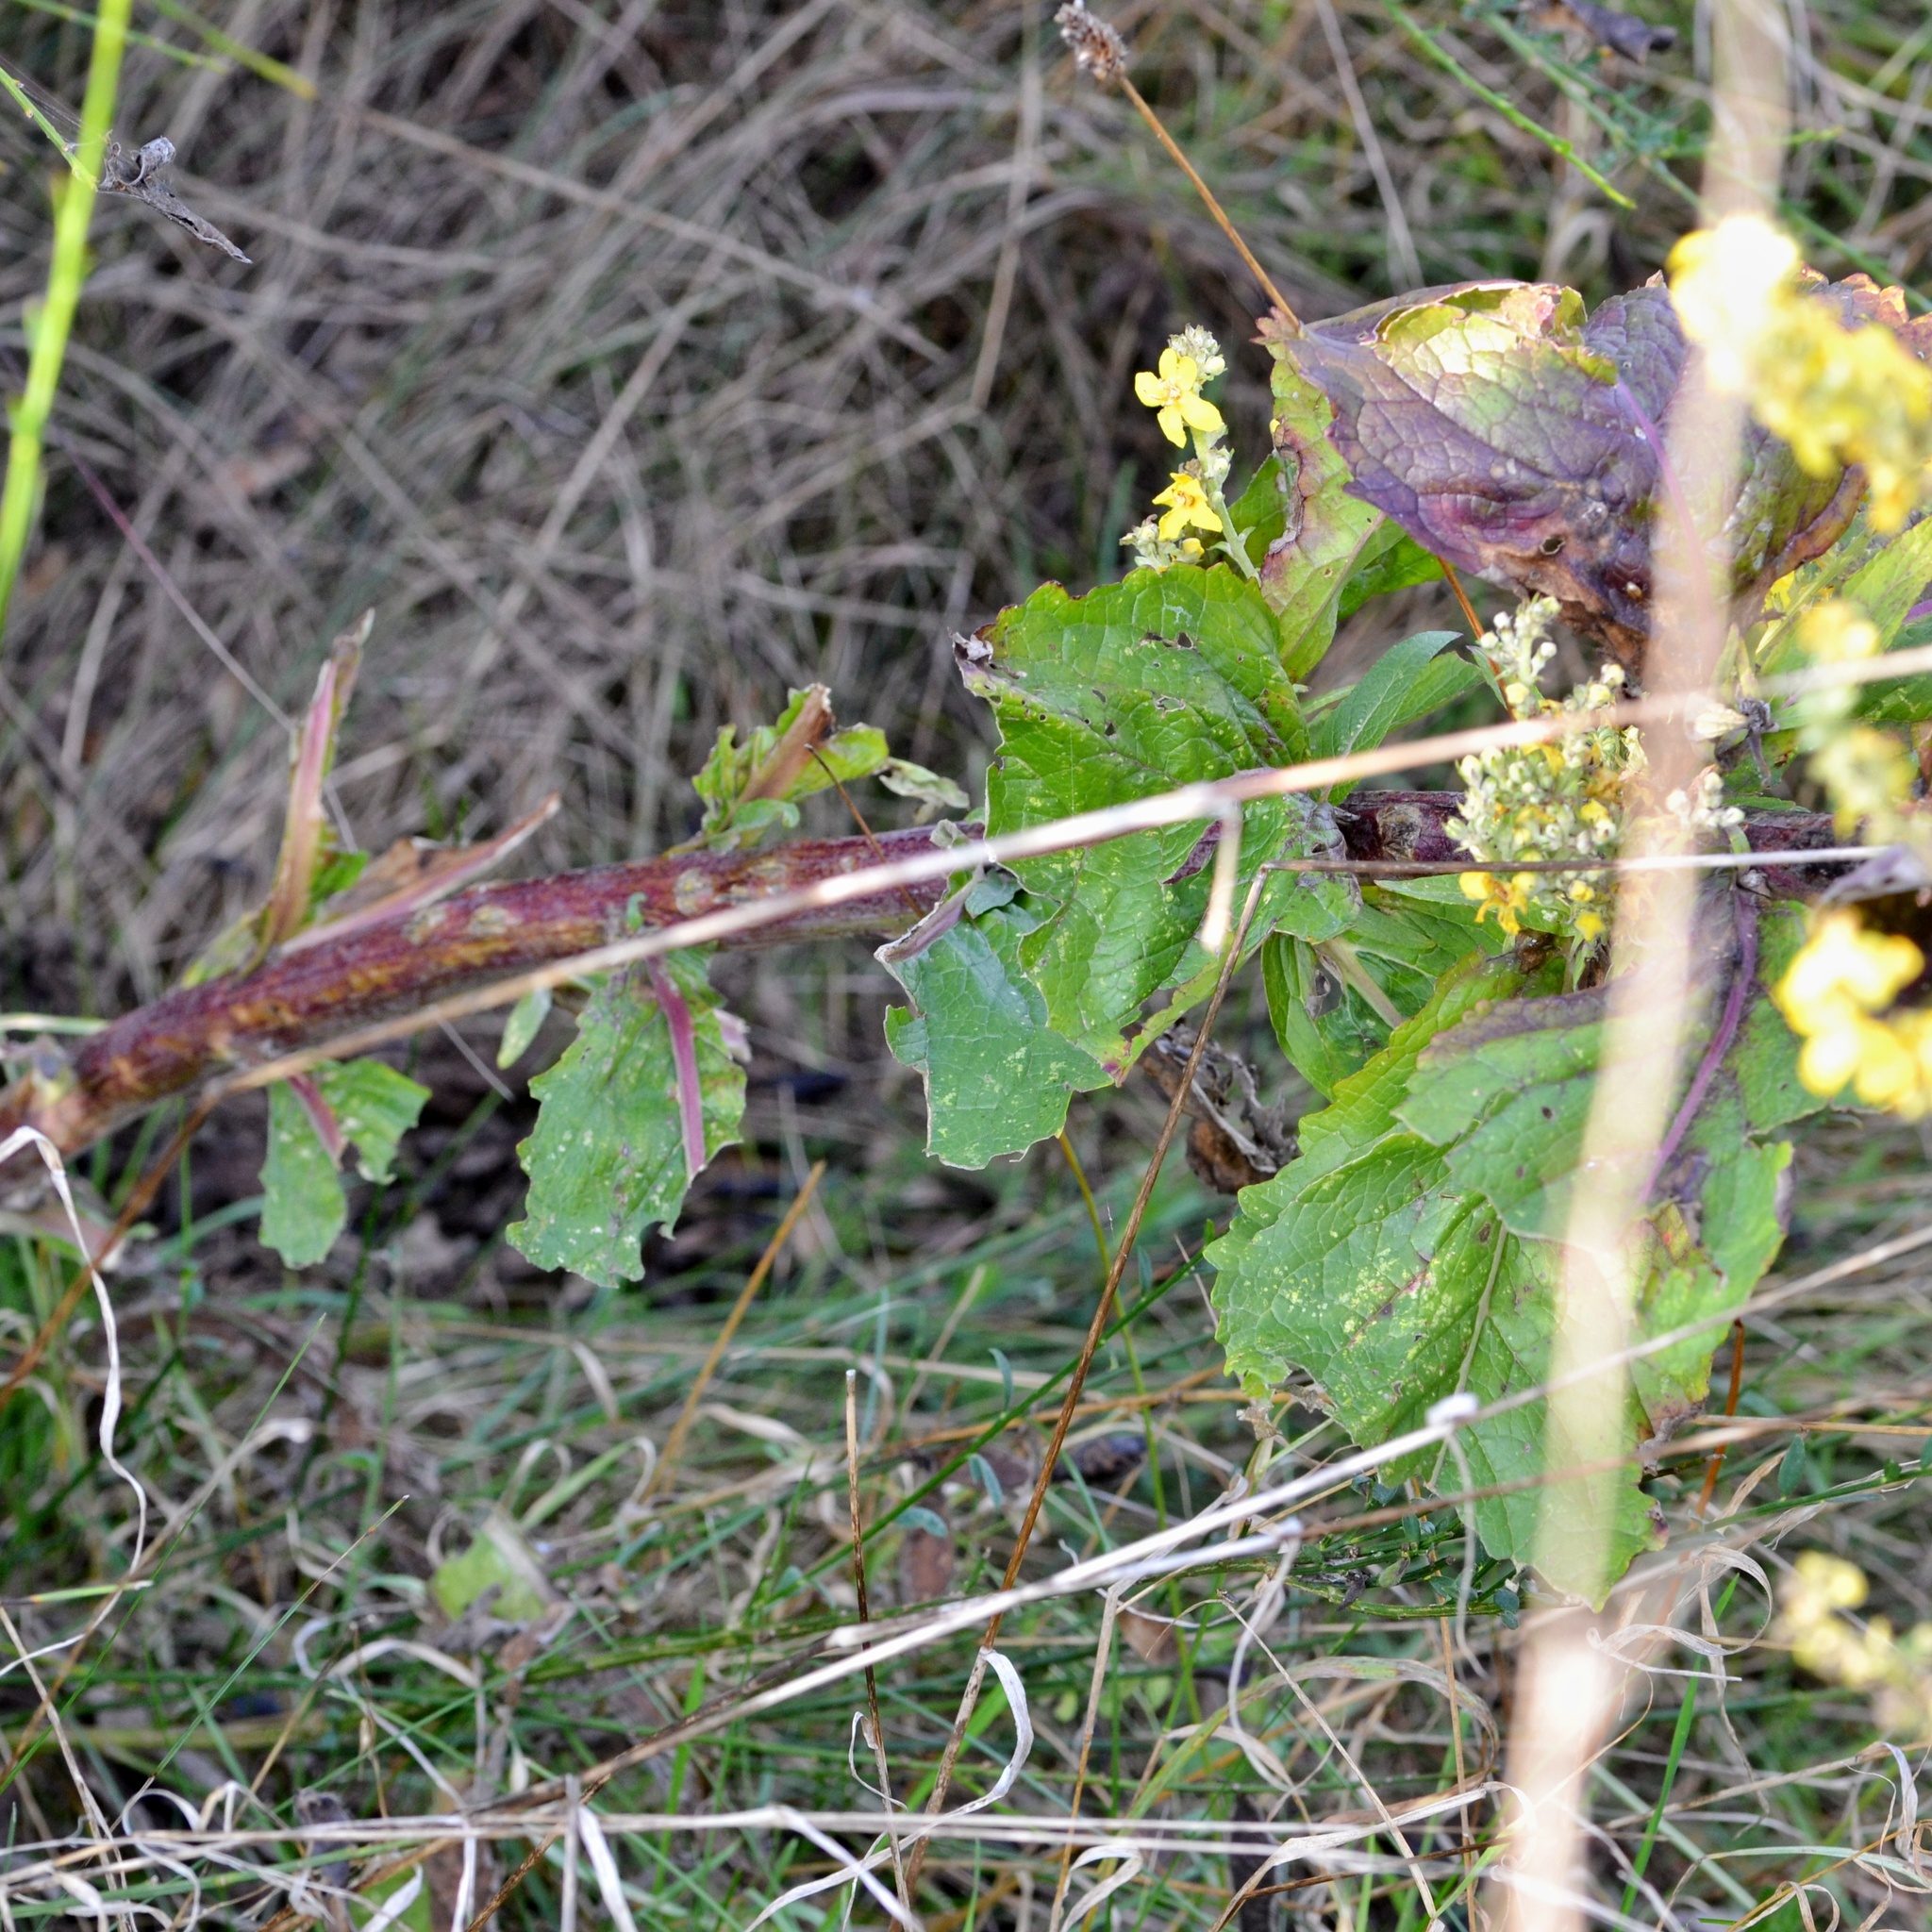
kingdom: Plantae
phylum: Tracheophyta
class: Magnoliopsida
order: Lamiales
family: Scrophulariaceae
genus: Verbascum
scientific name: Verbascum lychnitis
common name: White mullein
